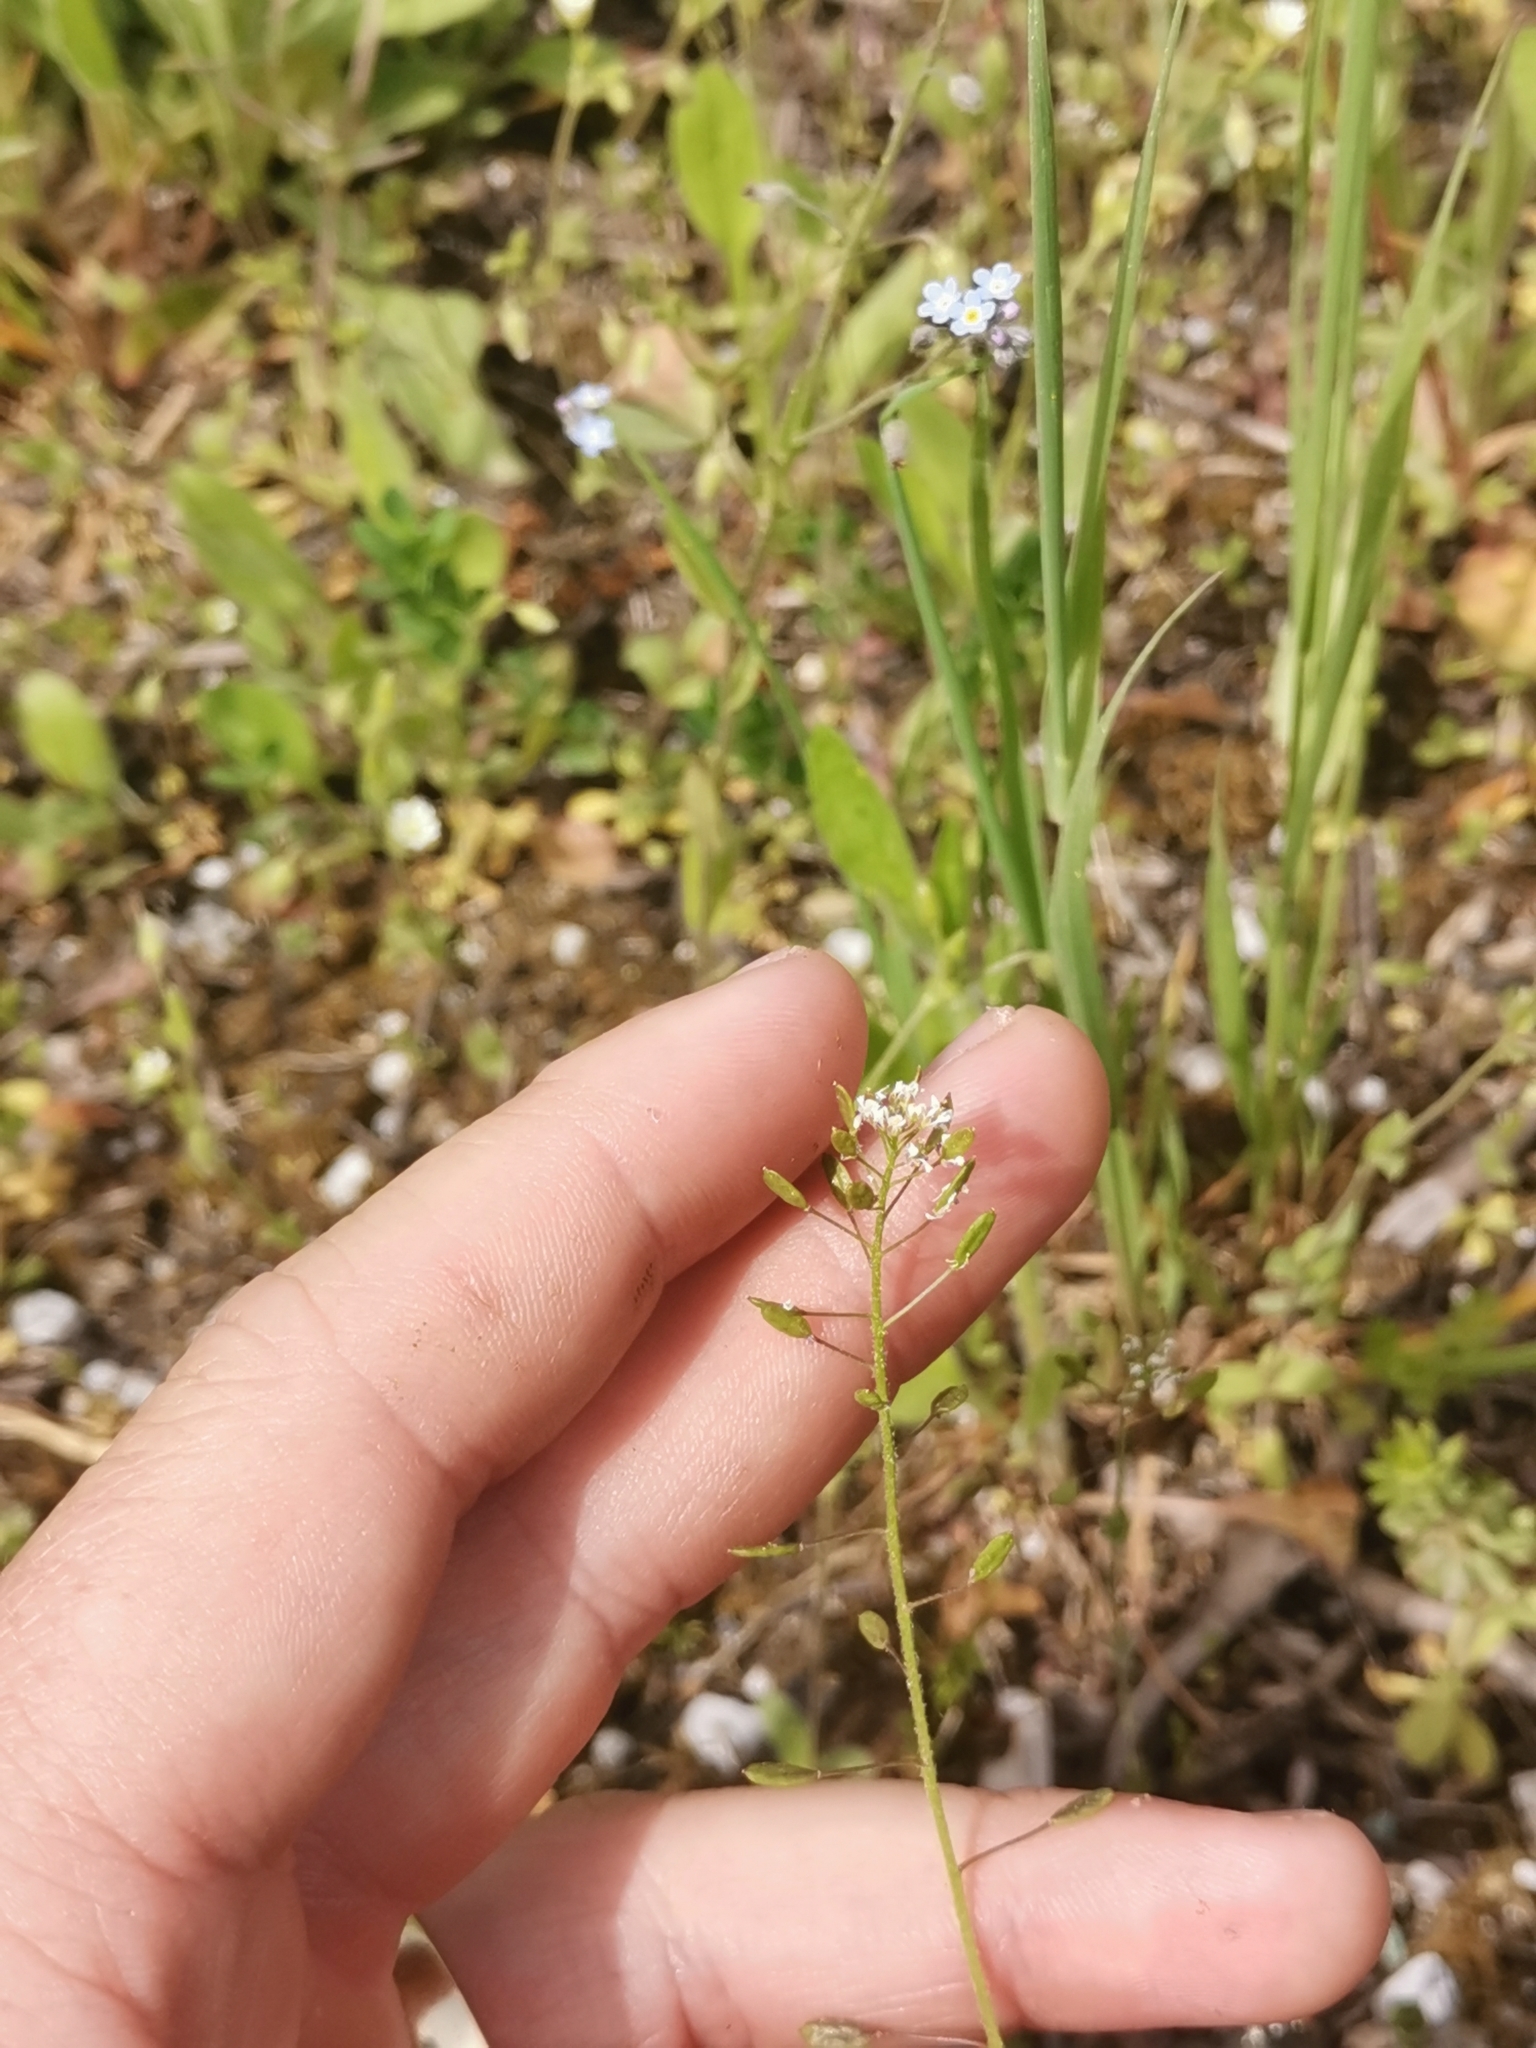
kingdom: Plantae
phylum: Tracheophyta
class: Magnoliopsida
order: Brassicales
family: Brassicaceae
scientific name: Brassicaceae
